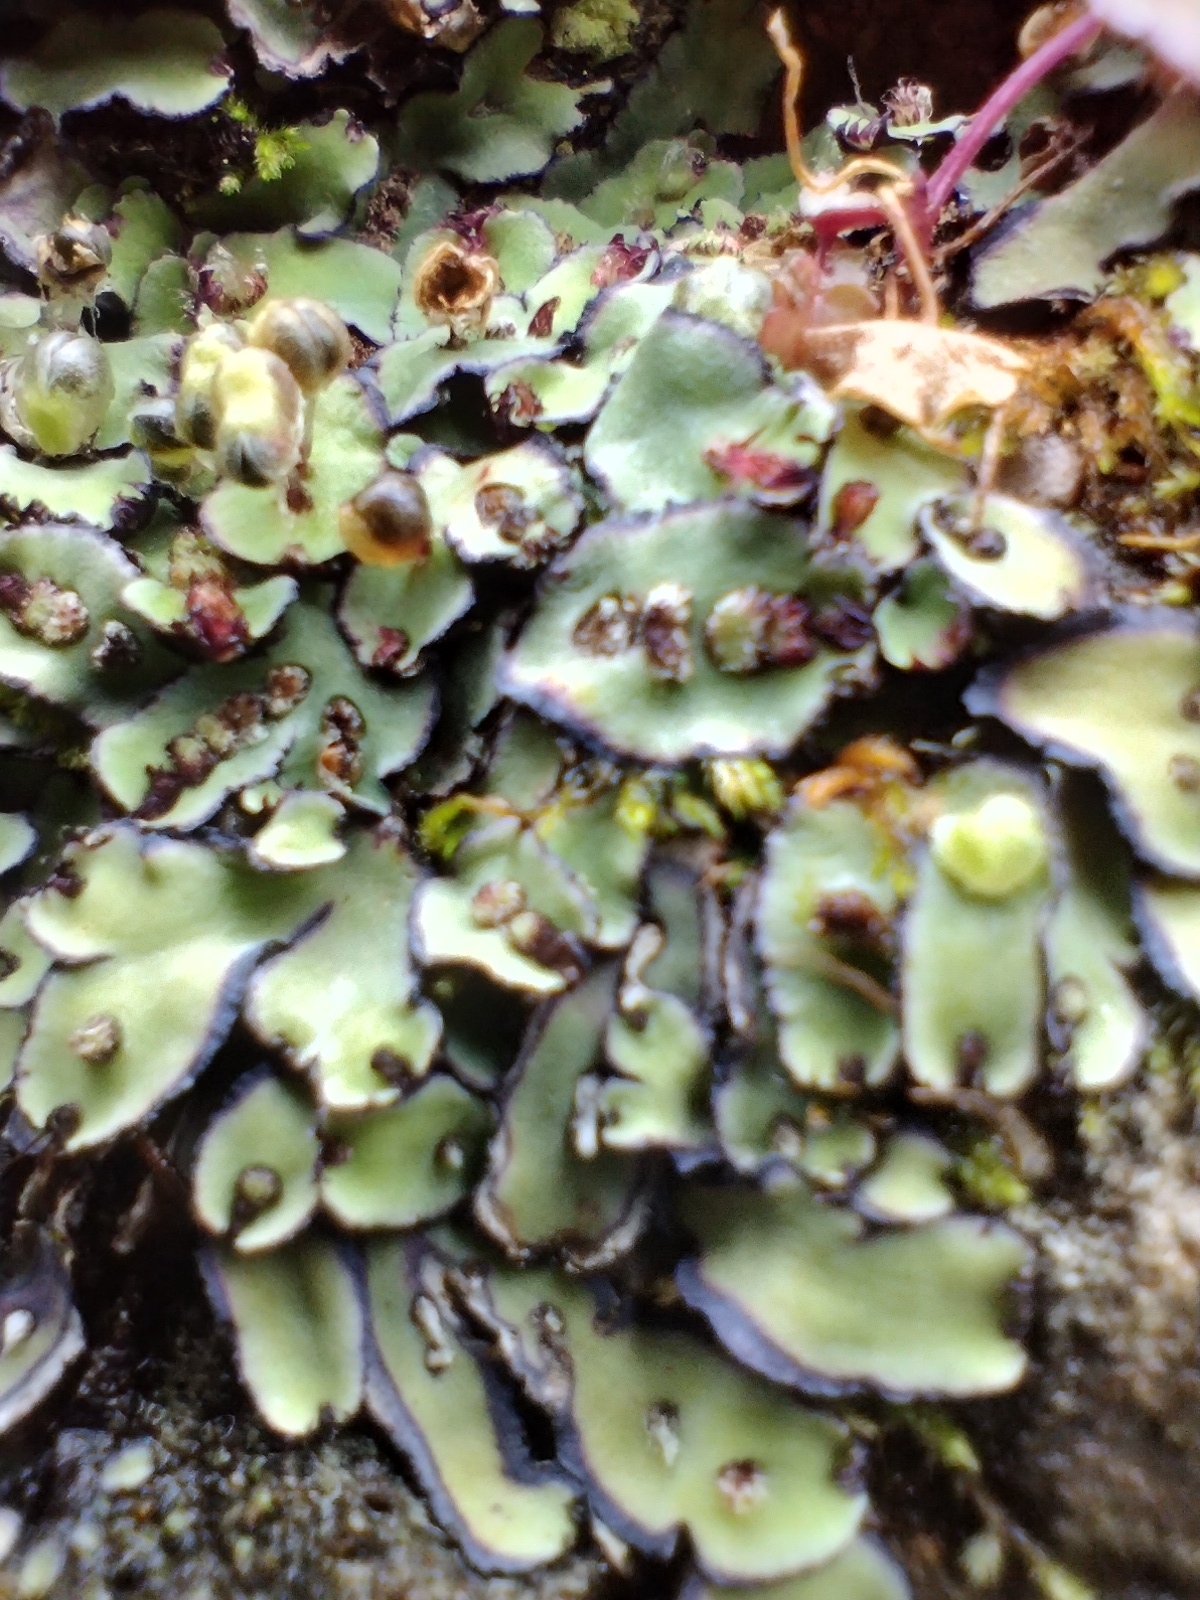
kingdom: Plantae
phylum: Marchantiophyta
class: Marchantiopsida
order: Marchantiales
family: Aytoniaceae
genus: Plagiochasma
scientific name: Plagiochasma rupestre
